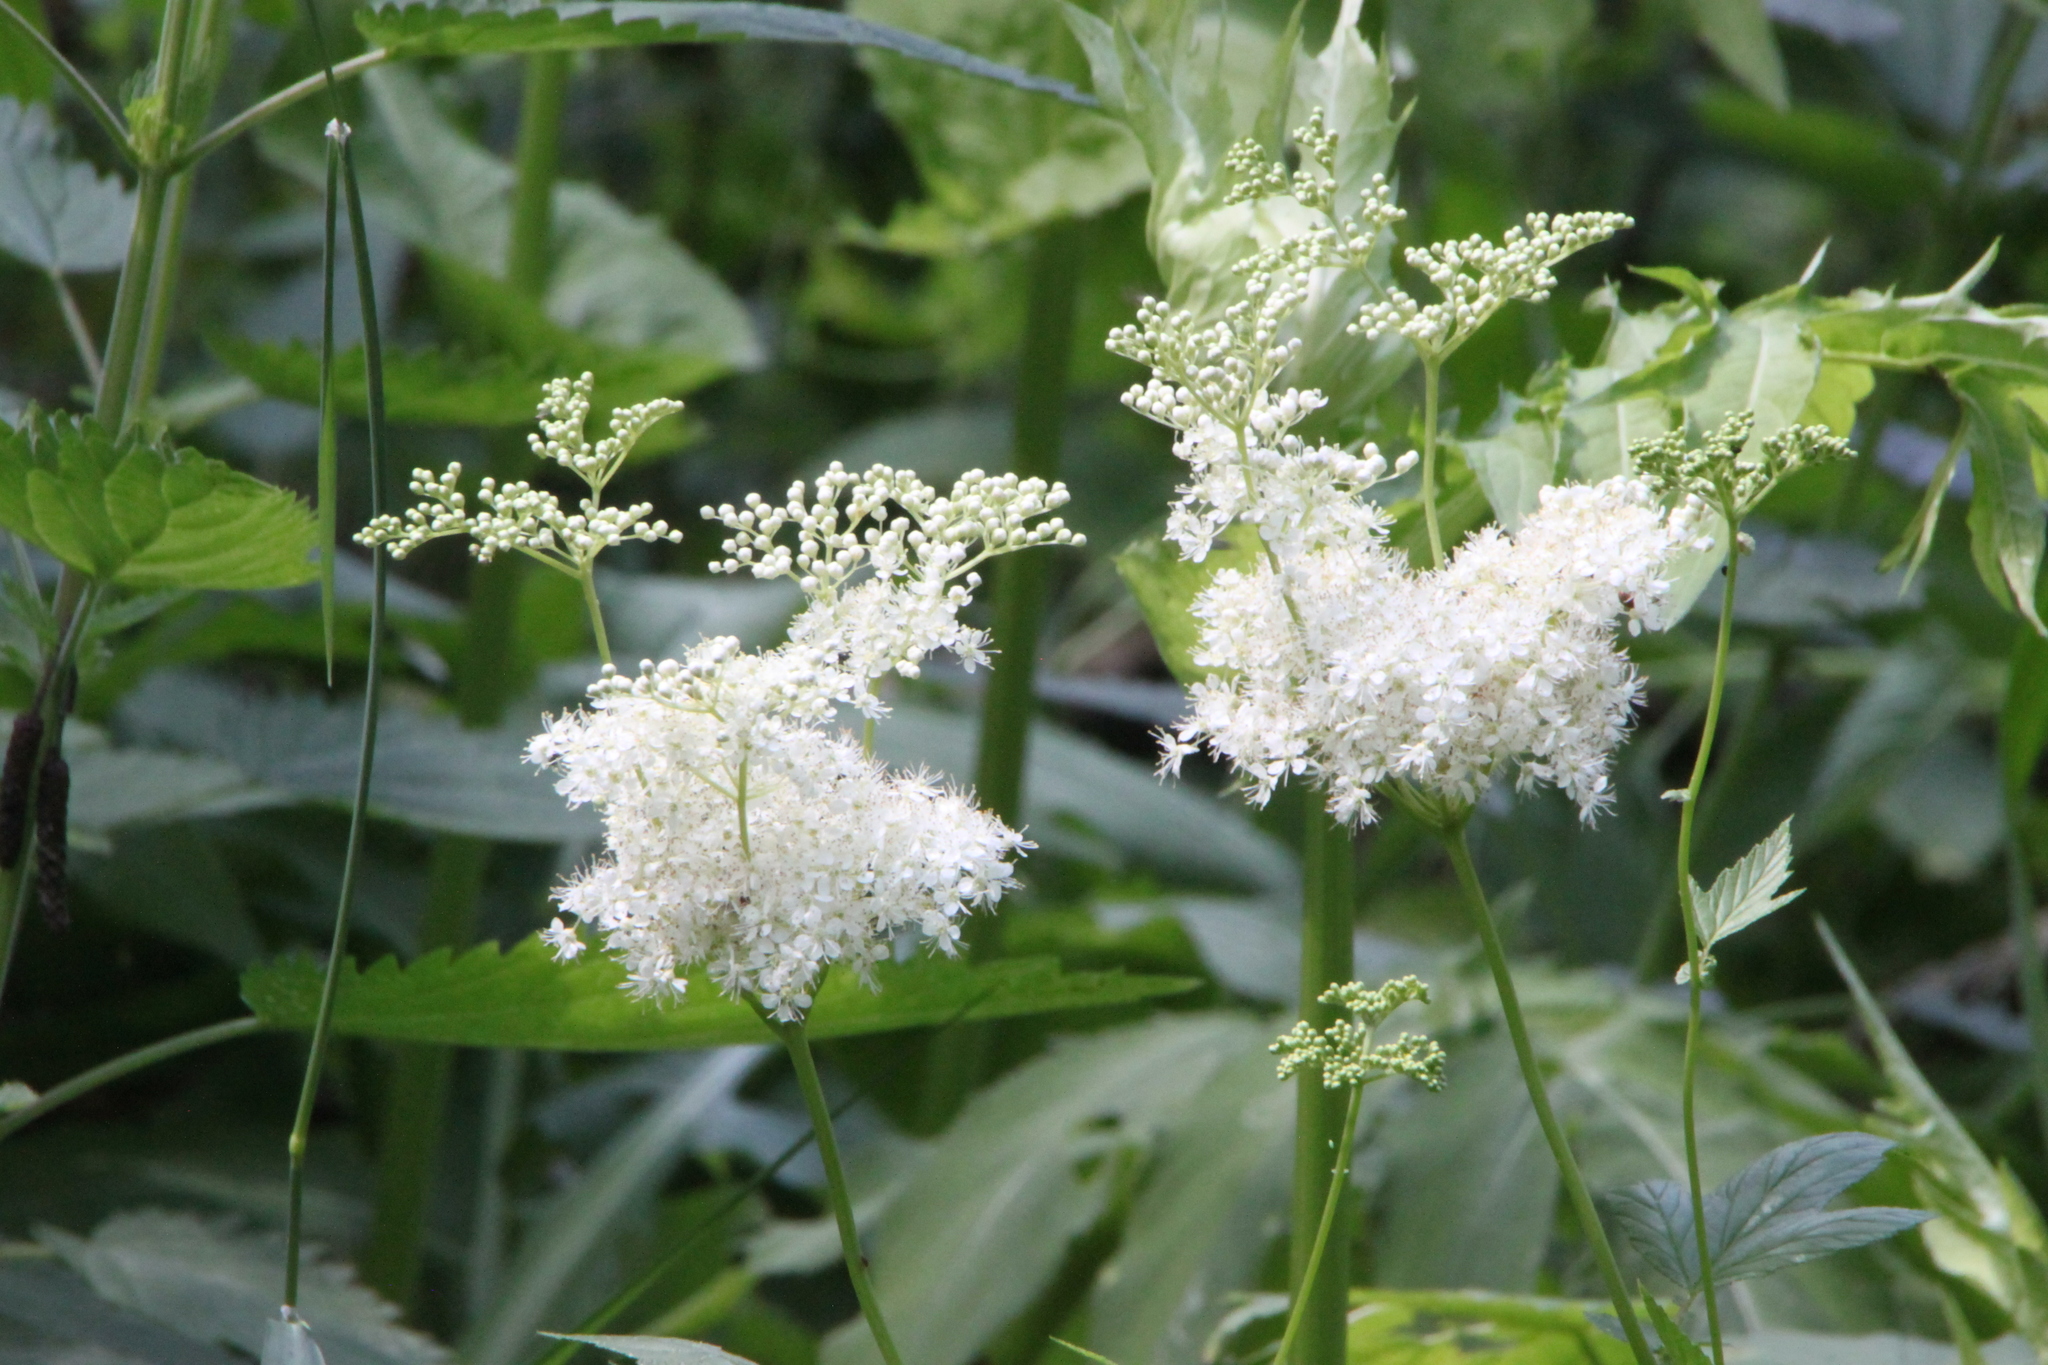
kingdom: Plantae
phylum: Tracheophyta
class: Magnoliopsida
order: Rosales
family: Rosaceae
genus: Filipendula
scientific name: Filipendula ulmaria
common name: Meadowsweet
